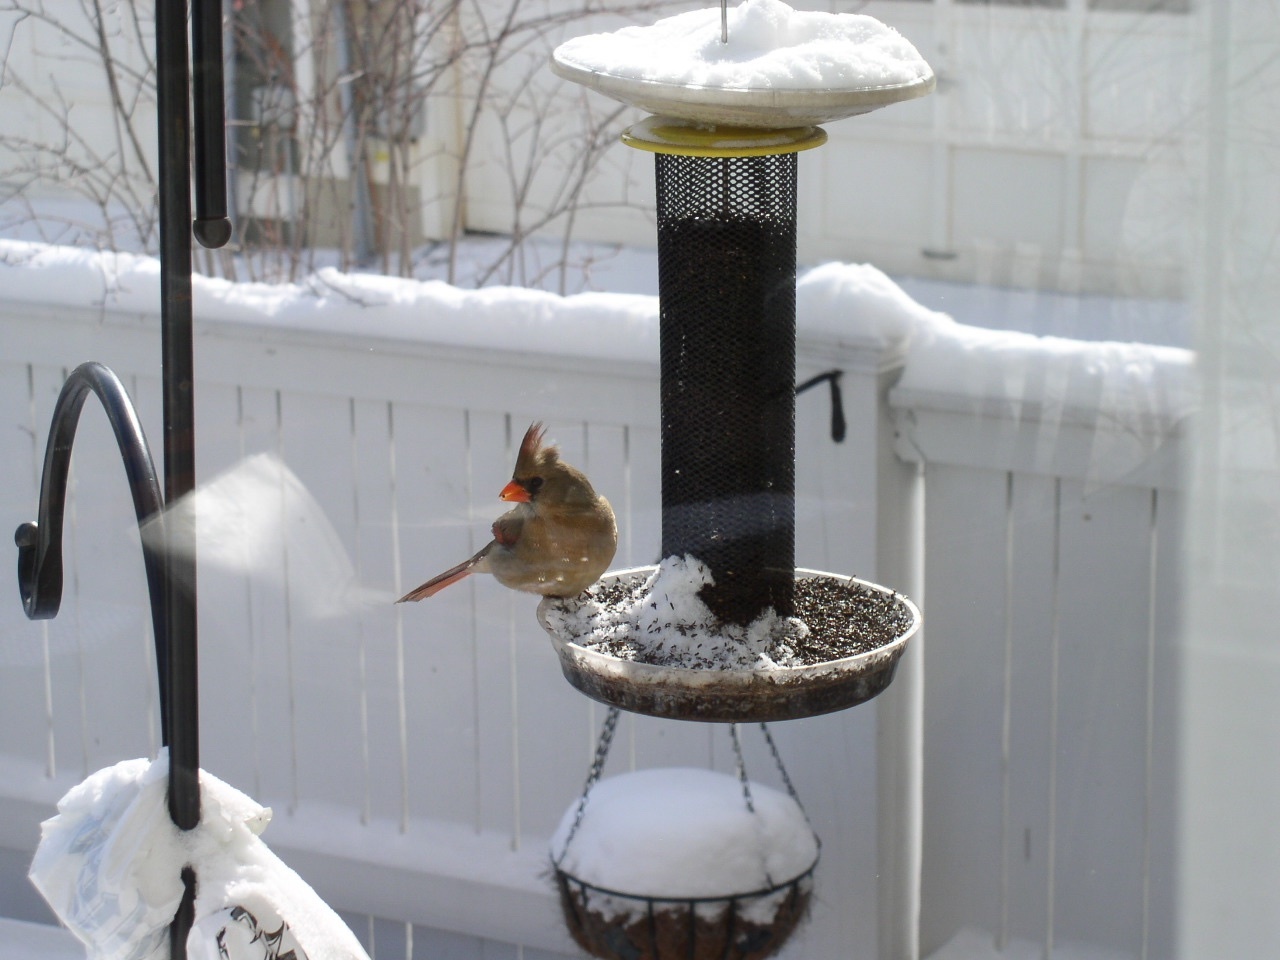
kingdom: Animalia
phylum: Chordata
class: Aves
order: Passeriformes
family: Cardinalidae
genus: Cardinalis
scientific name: Cardinalis cardinalis
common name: Northern cardinal
